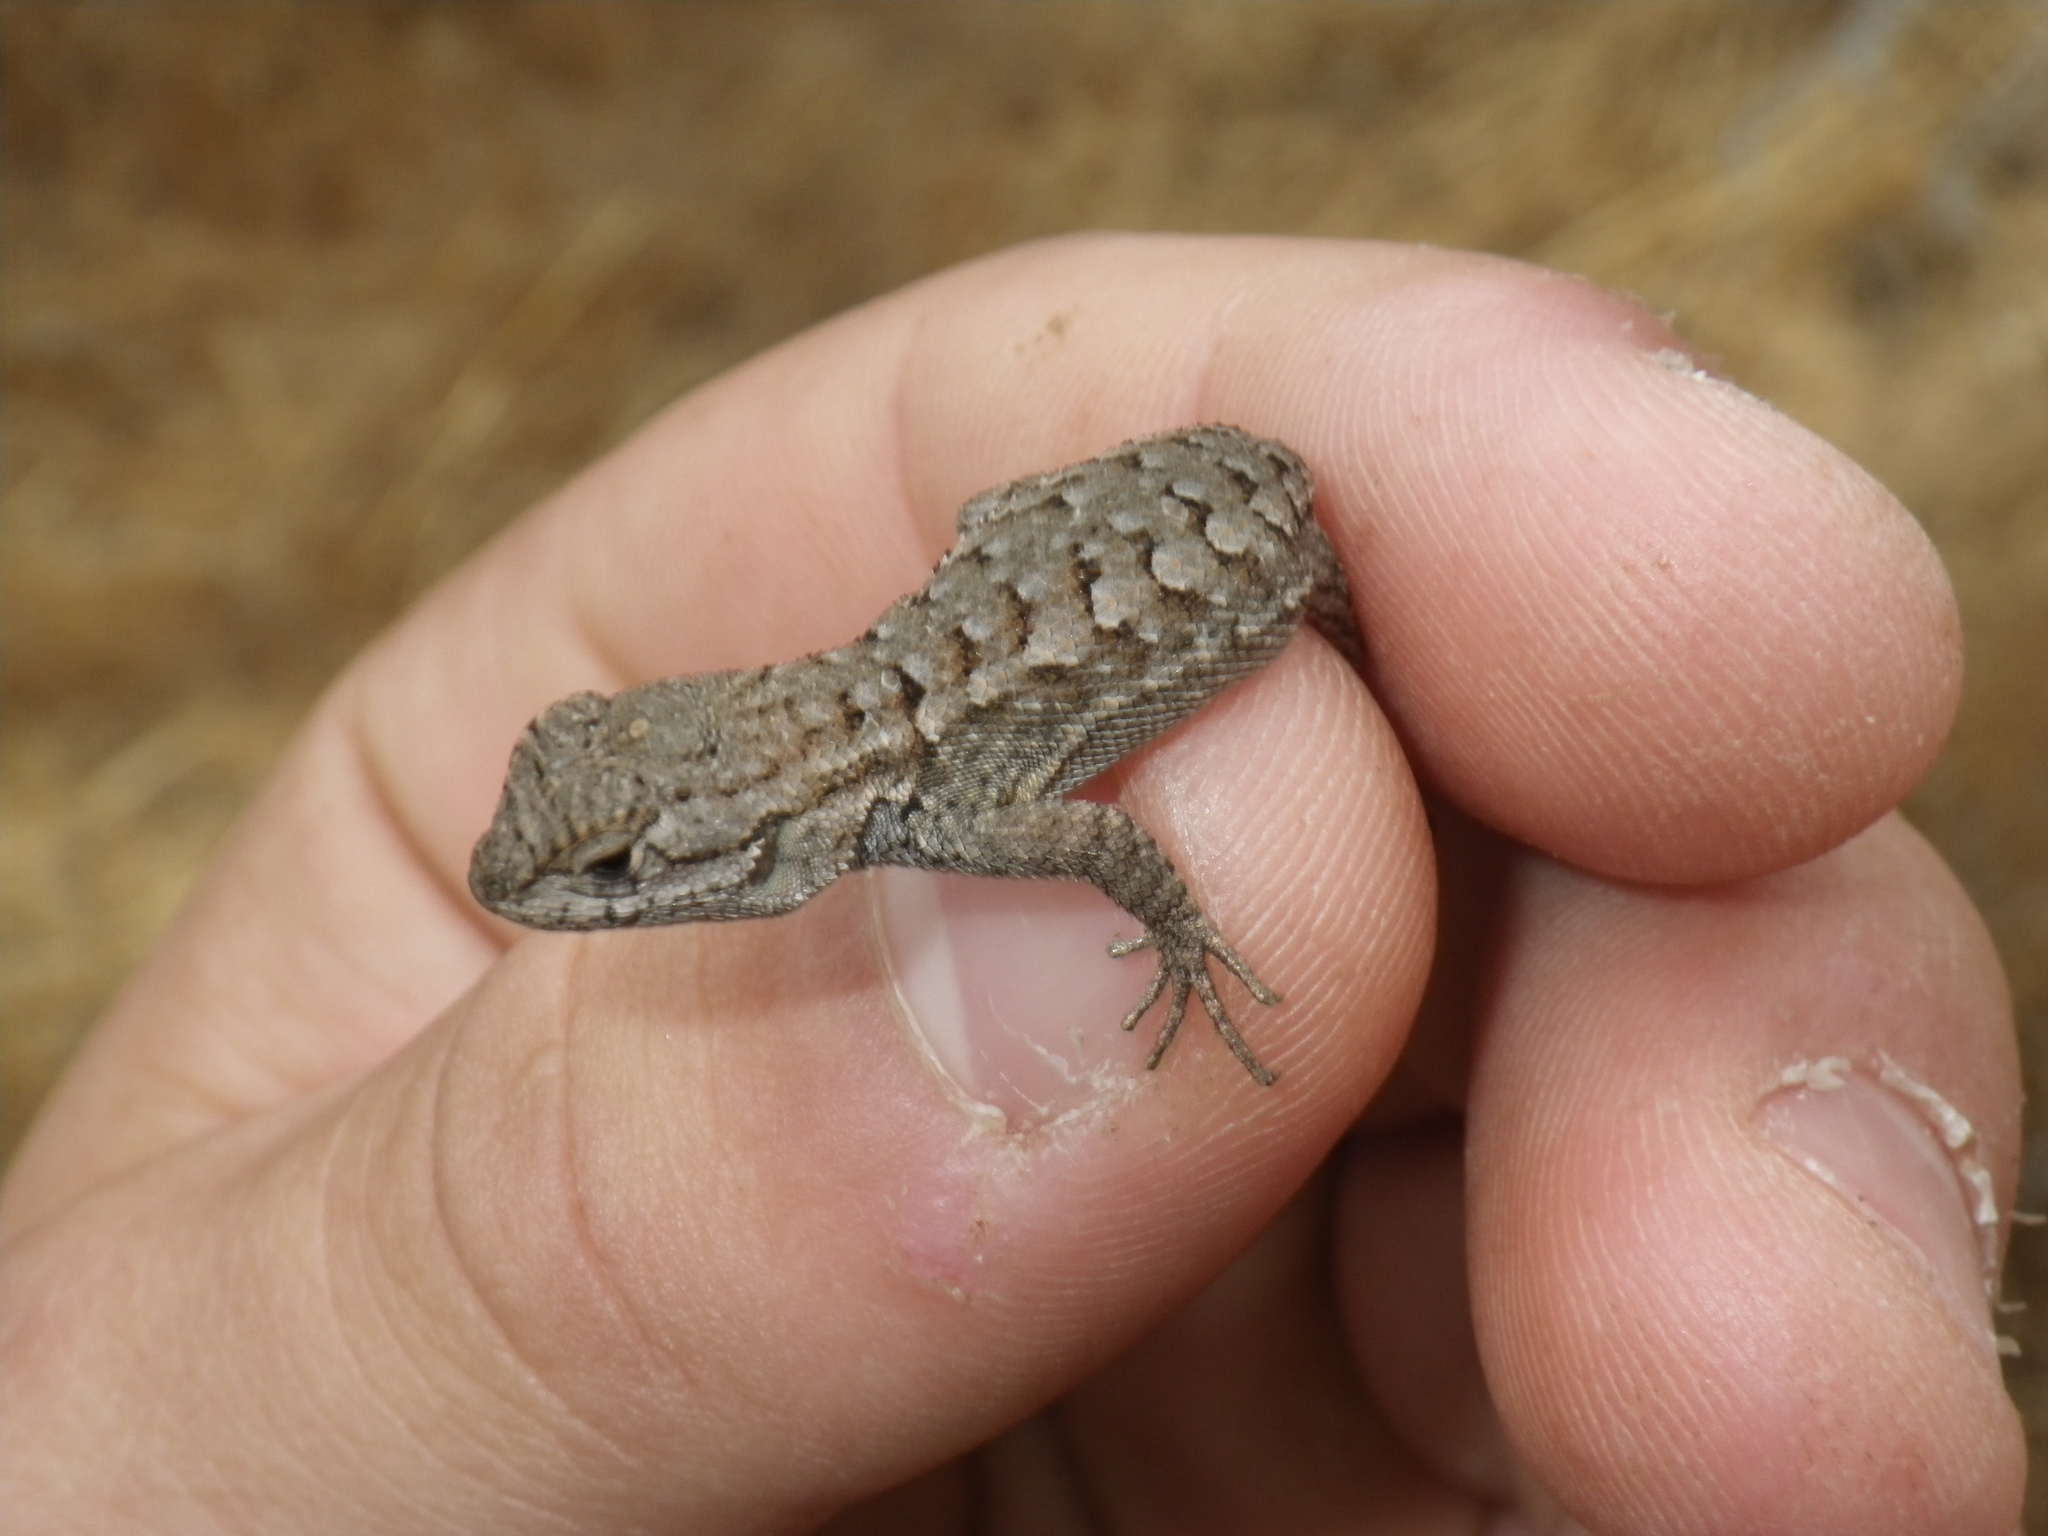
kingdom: Animalia
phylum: Chordata
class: Squamata
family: Phrynosomatidae
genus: Sceloporus
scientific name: Sceloporus occidentalis
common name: Western fence lizard
